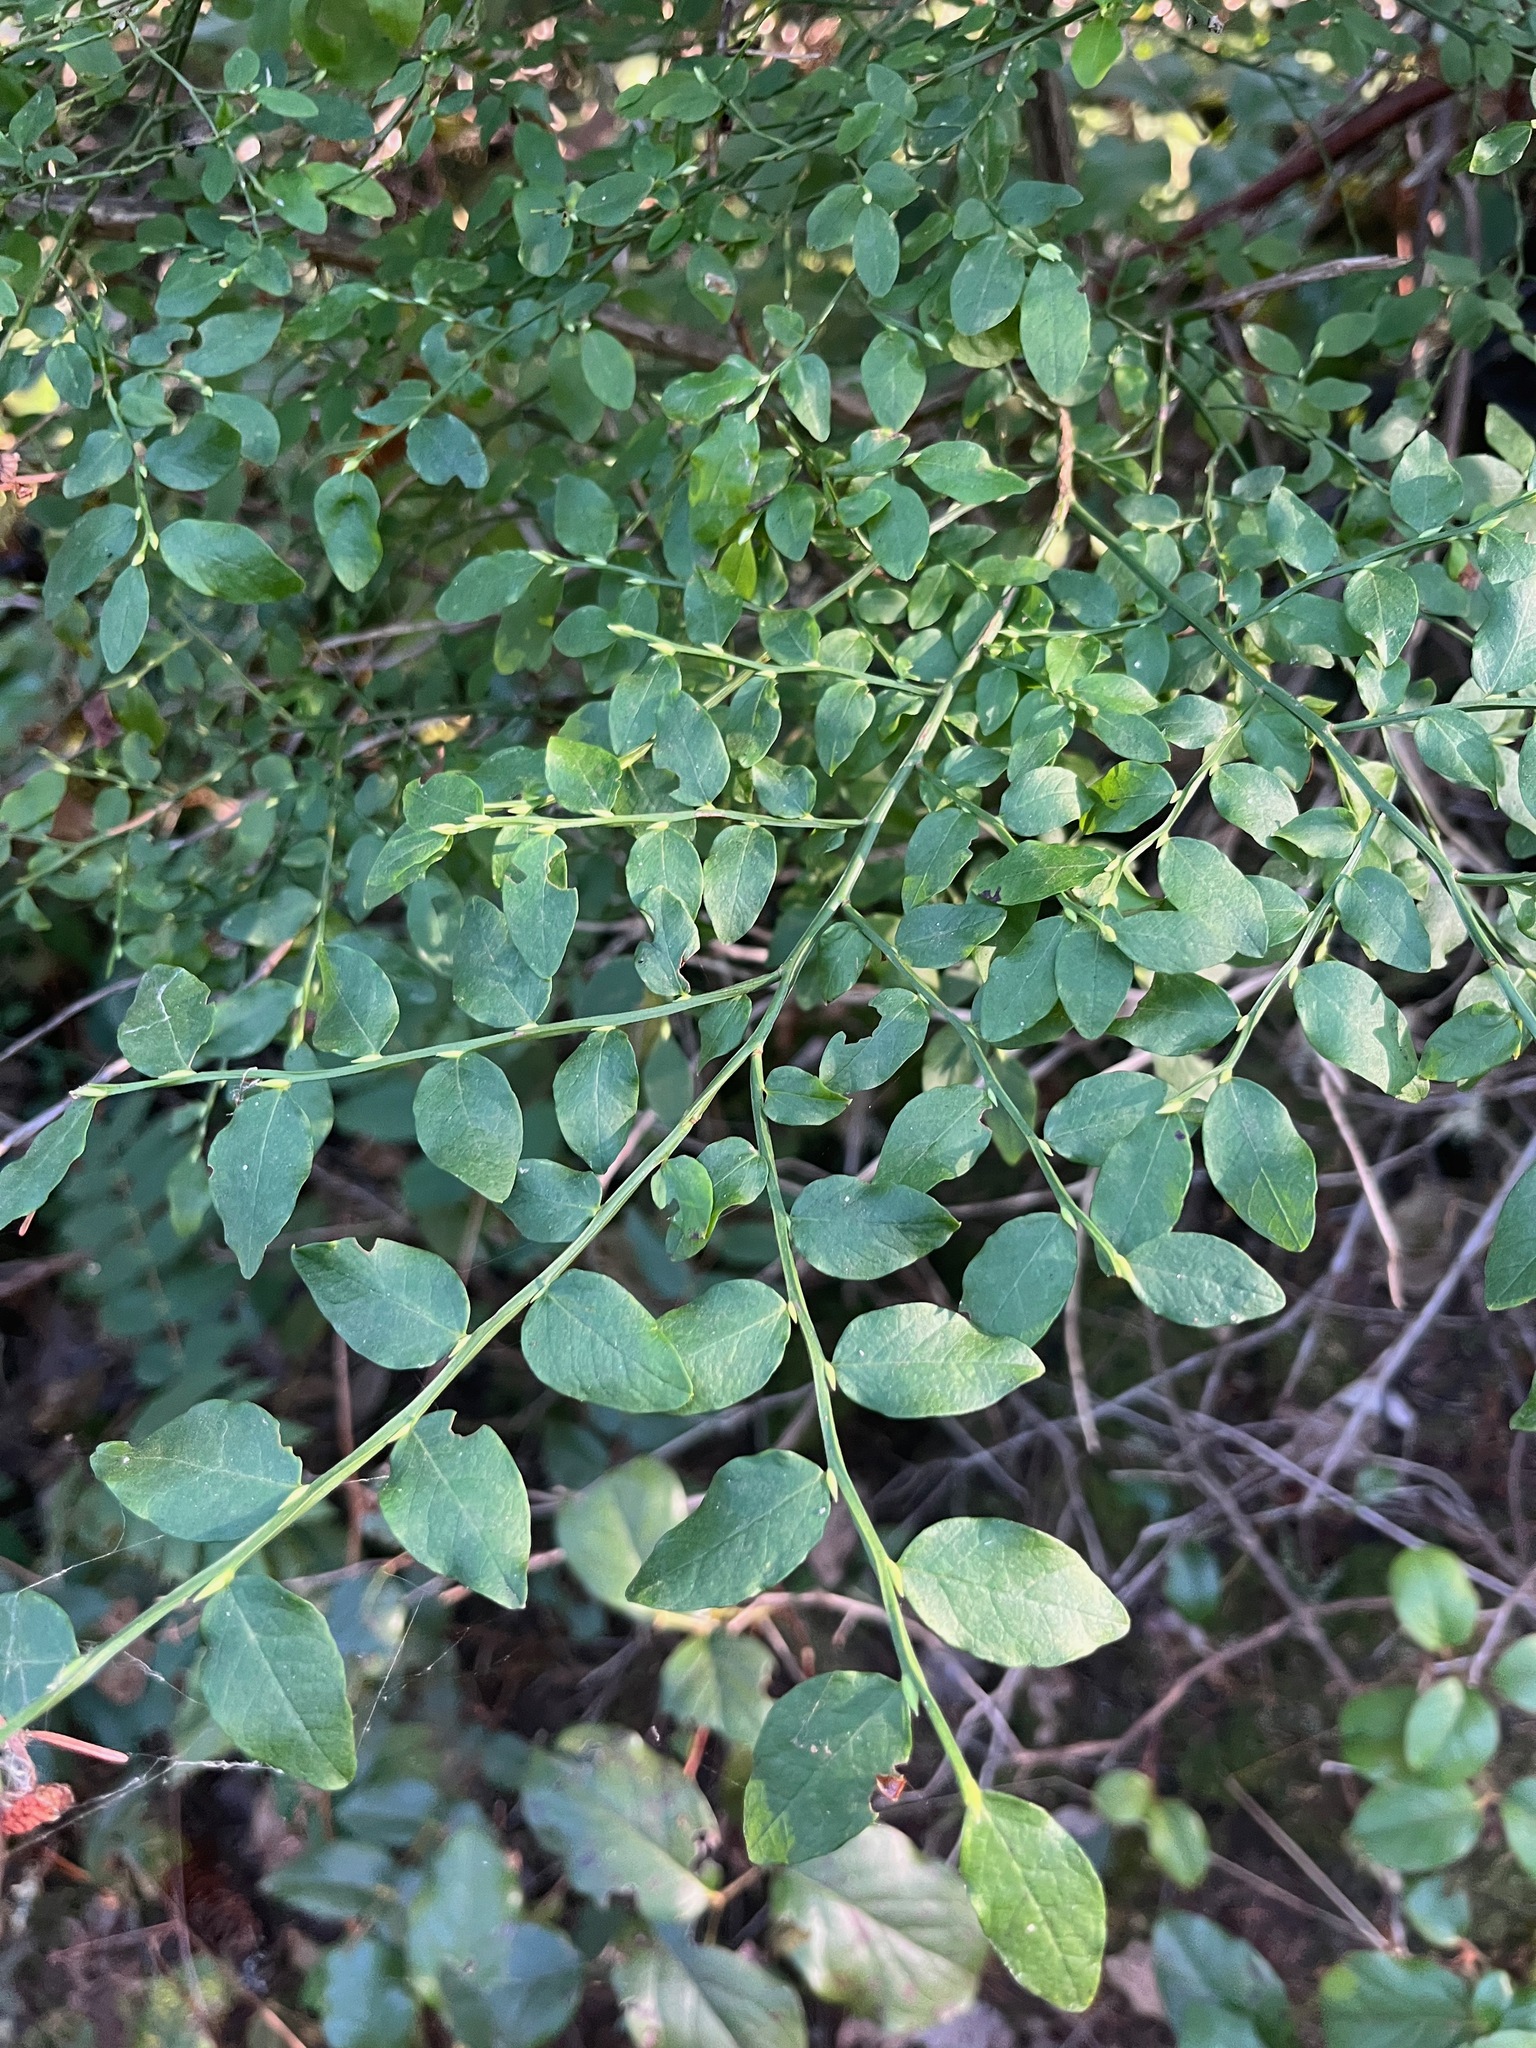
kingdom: Plantae
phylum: Tracheophyta
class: Magnoliopsida
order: Ericales
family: Ericaceae
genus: Vaccinium
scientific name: Vaccinium parvifolium
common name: Red-huckleberry
